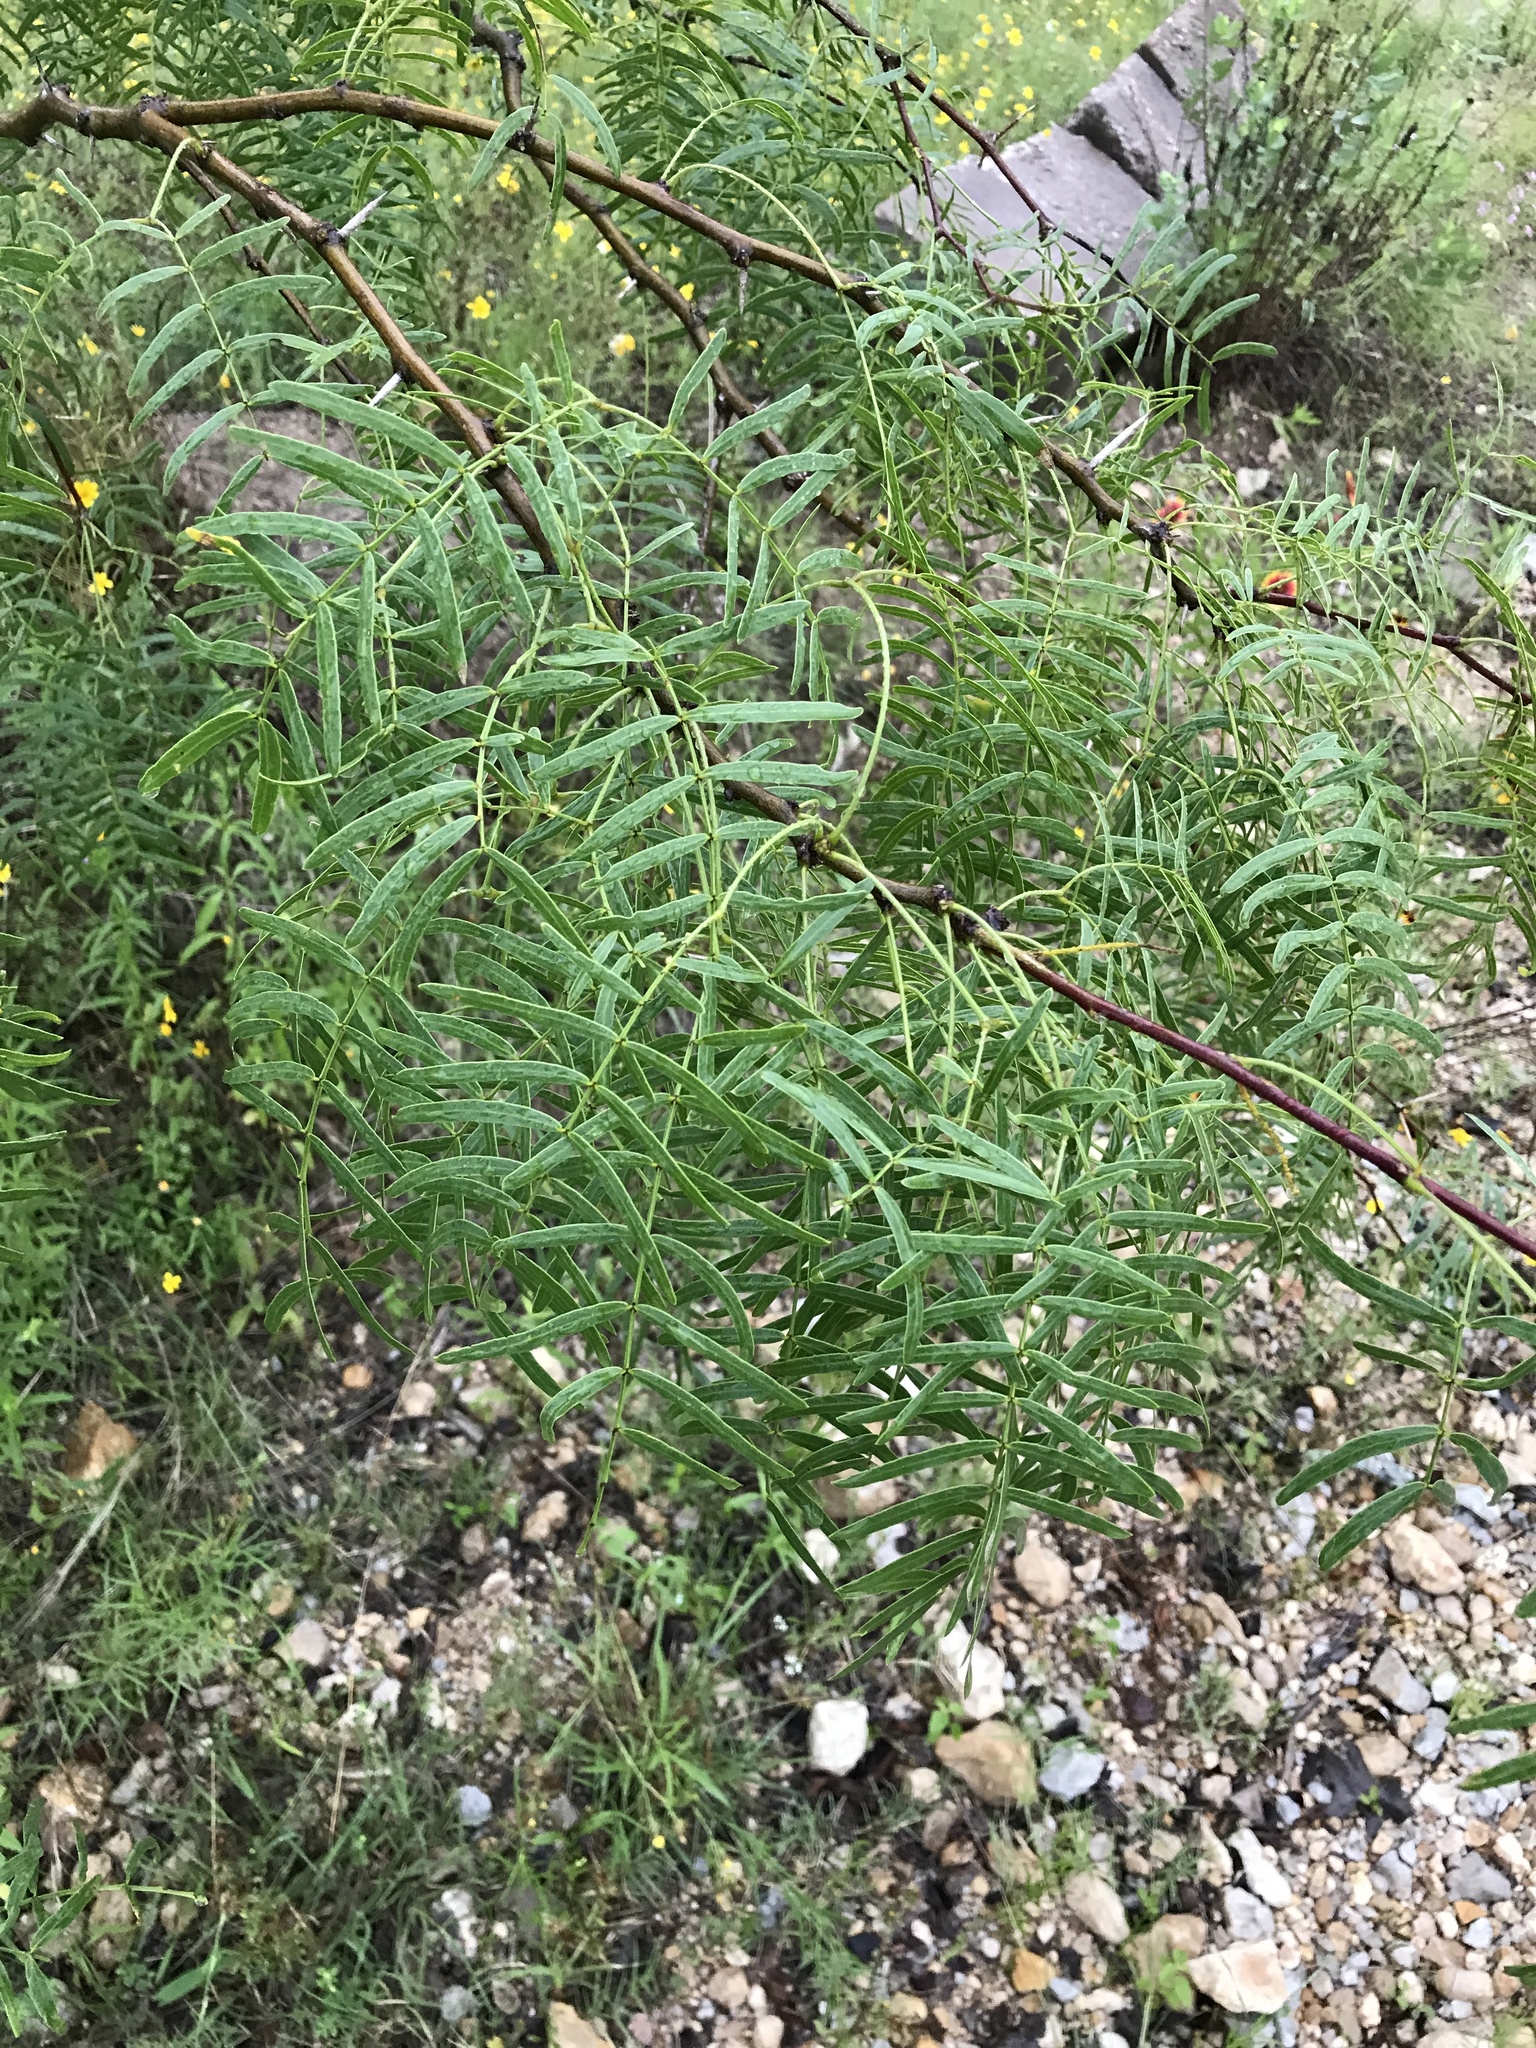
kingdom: Plantae
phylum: Tracheophyta
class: Magnoliopsida
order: Fabales
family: Fabaceae
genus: Prosopis
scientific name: Prosopis glandulosa
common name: Honey mesquite
